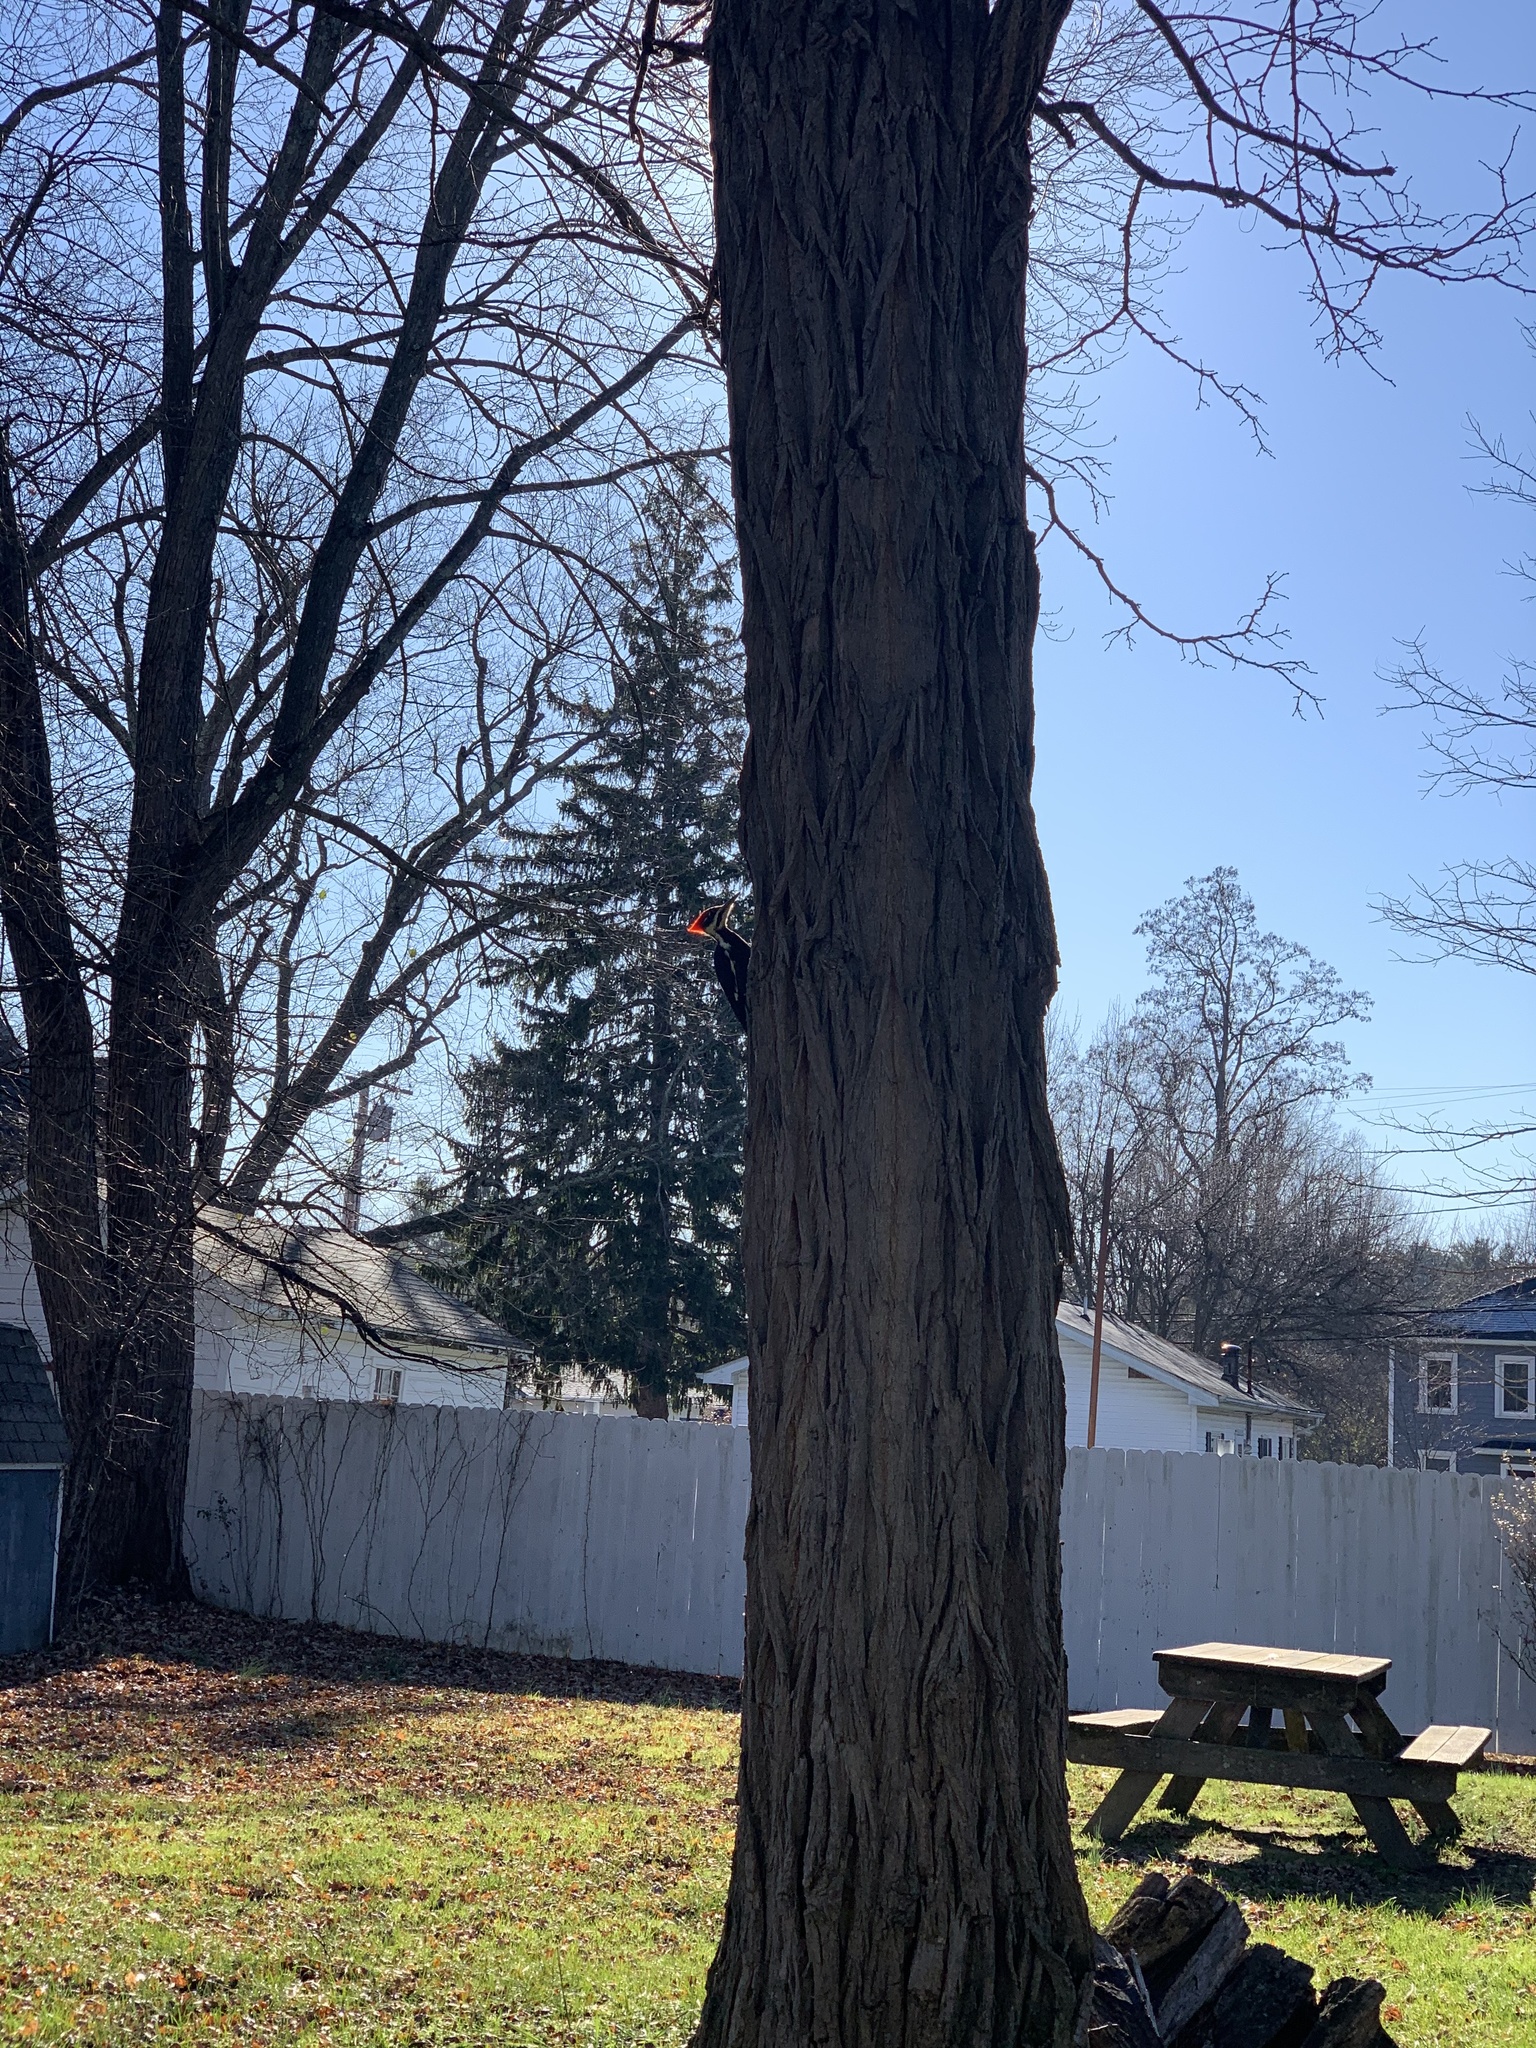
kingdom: Animalia
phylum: Chordata
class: Aves
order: Piciformes
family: Picidae
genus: Dryocopus
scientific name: Dryocopus pileatus
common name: Pileated woodpecker
